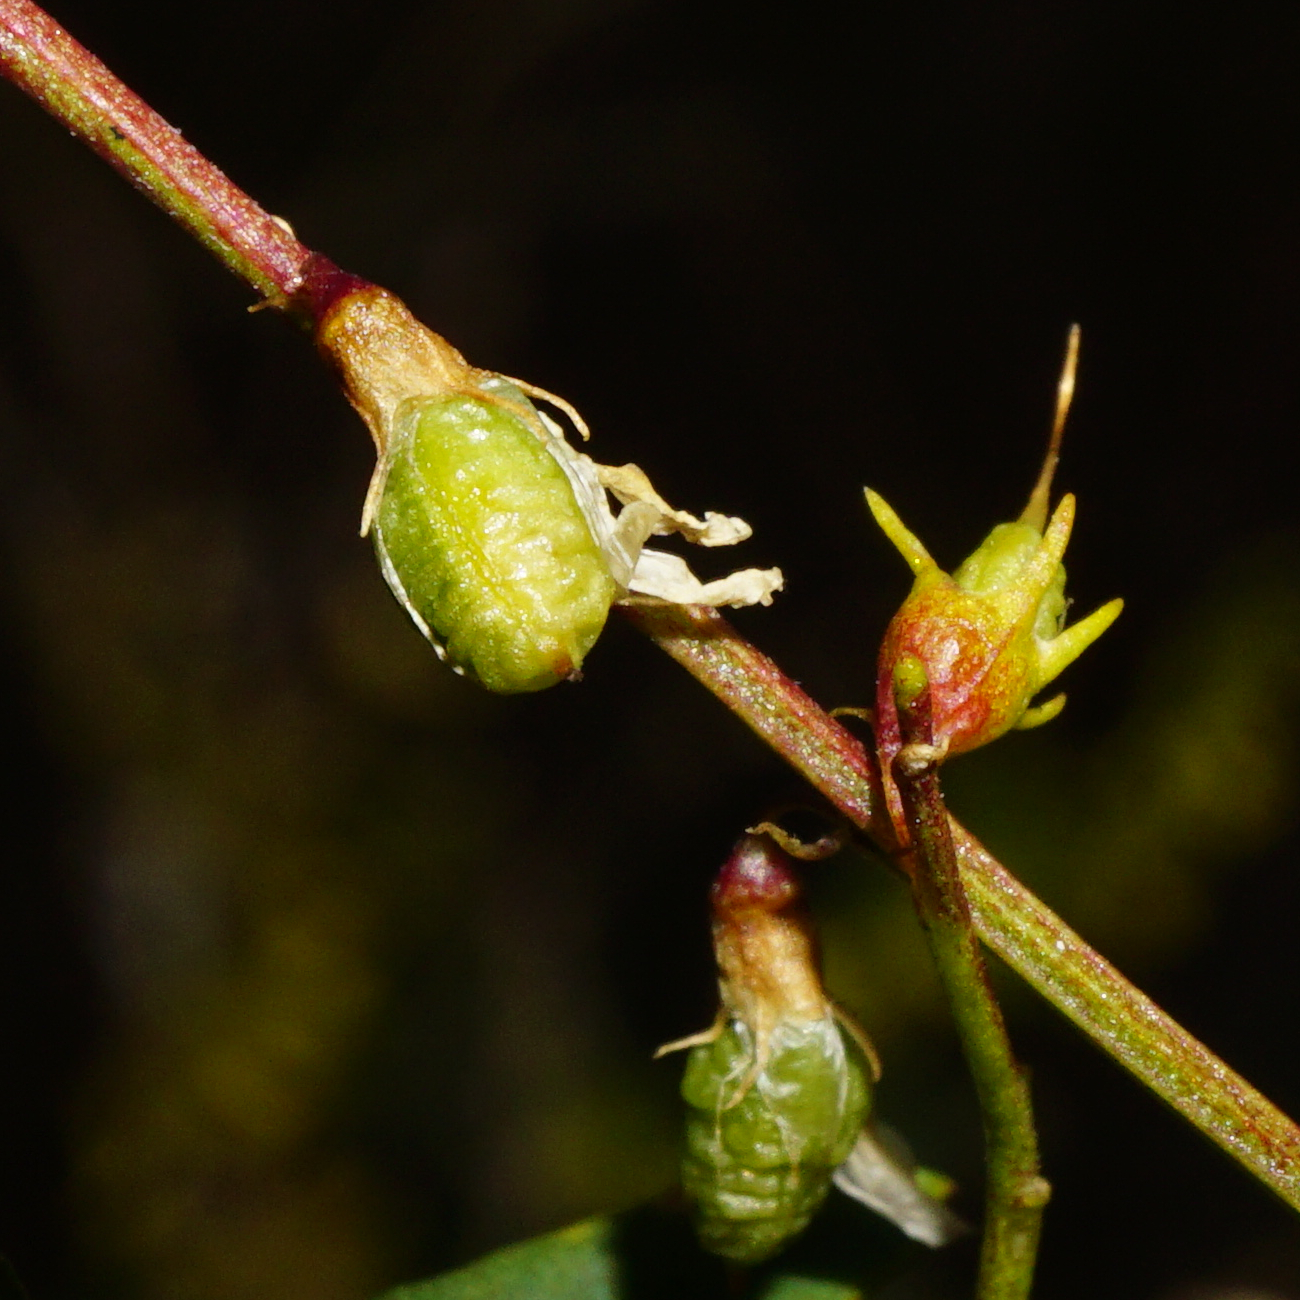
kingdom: Plantae
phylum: Tracheophyta
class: Magnoliopsida
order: Fabales
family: Fabaceae
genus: Melilotus
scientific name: Melilotus officinalis
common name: Sweetclover
